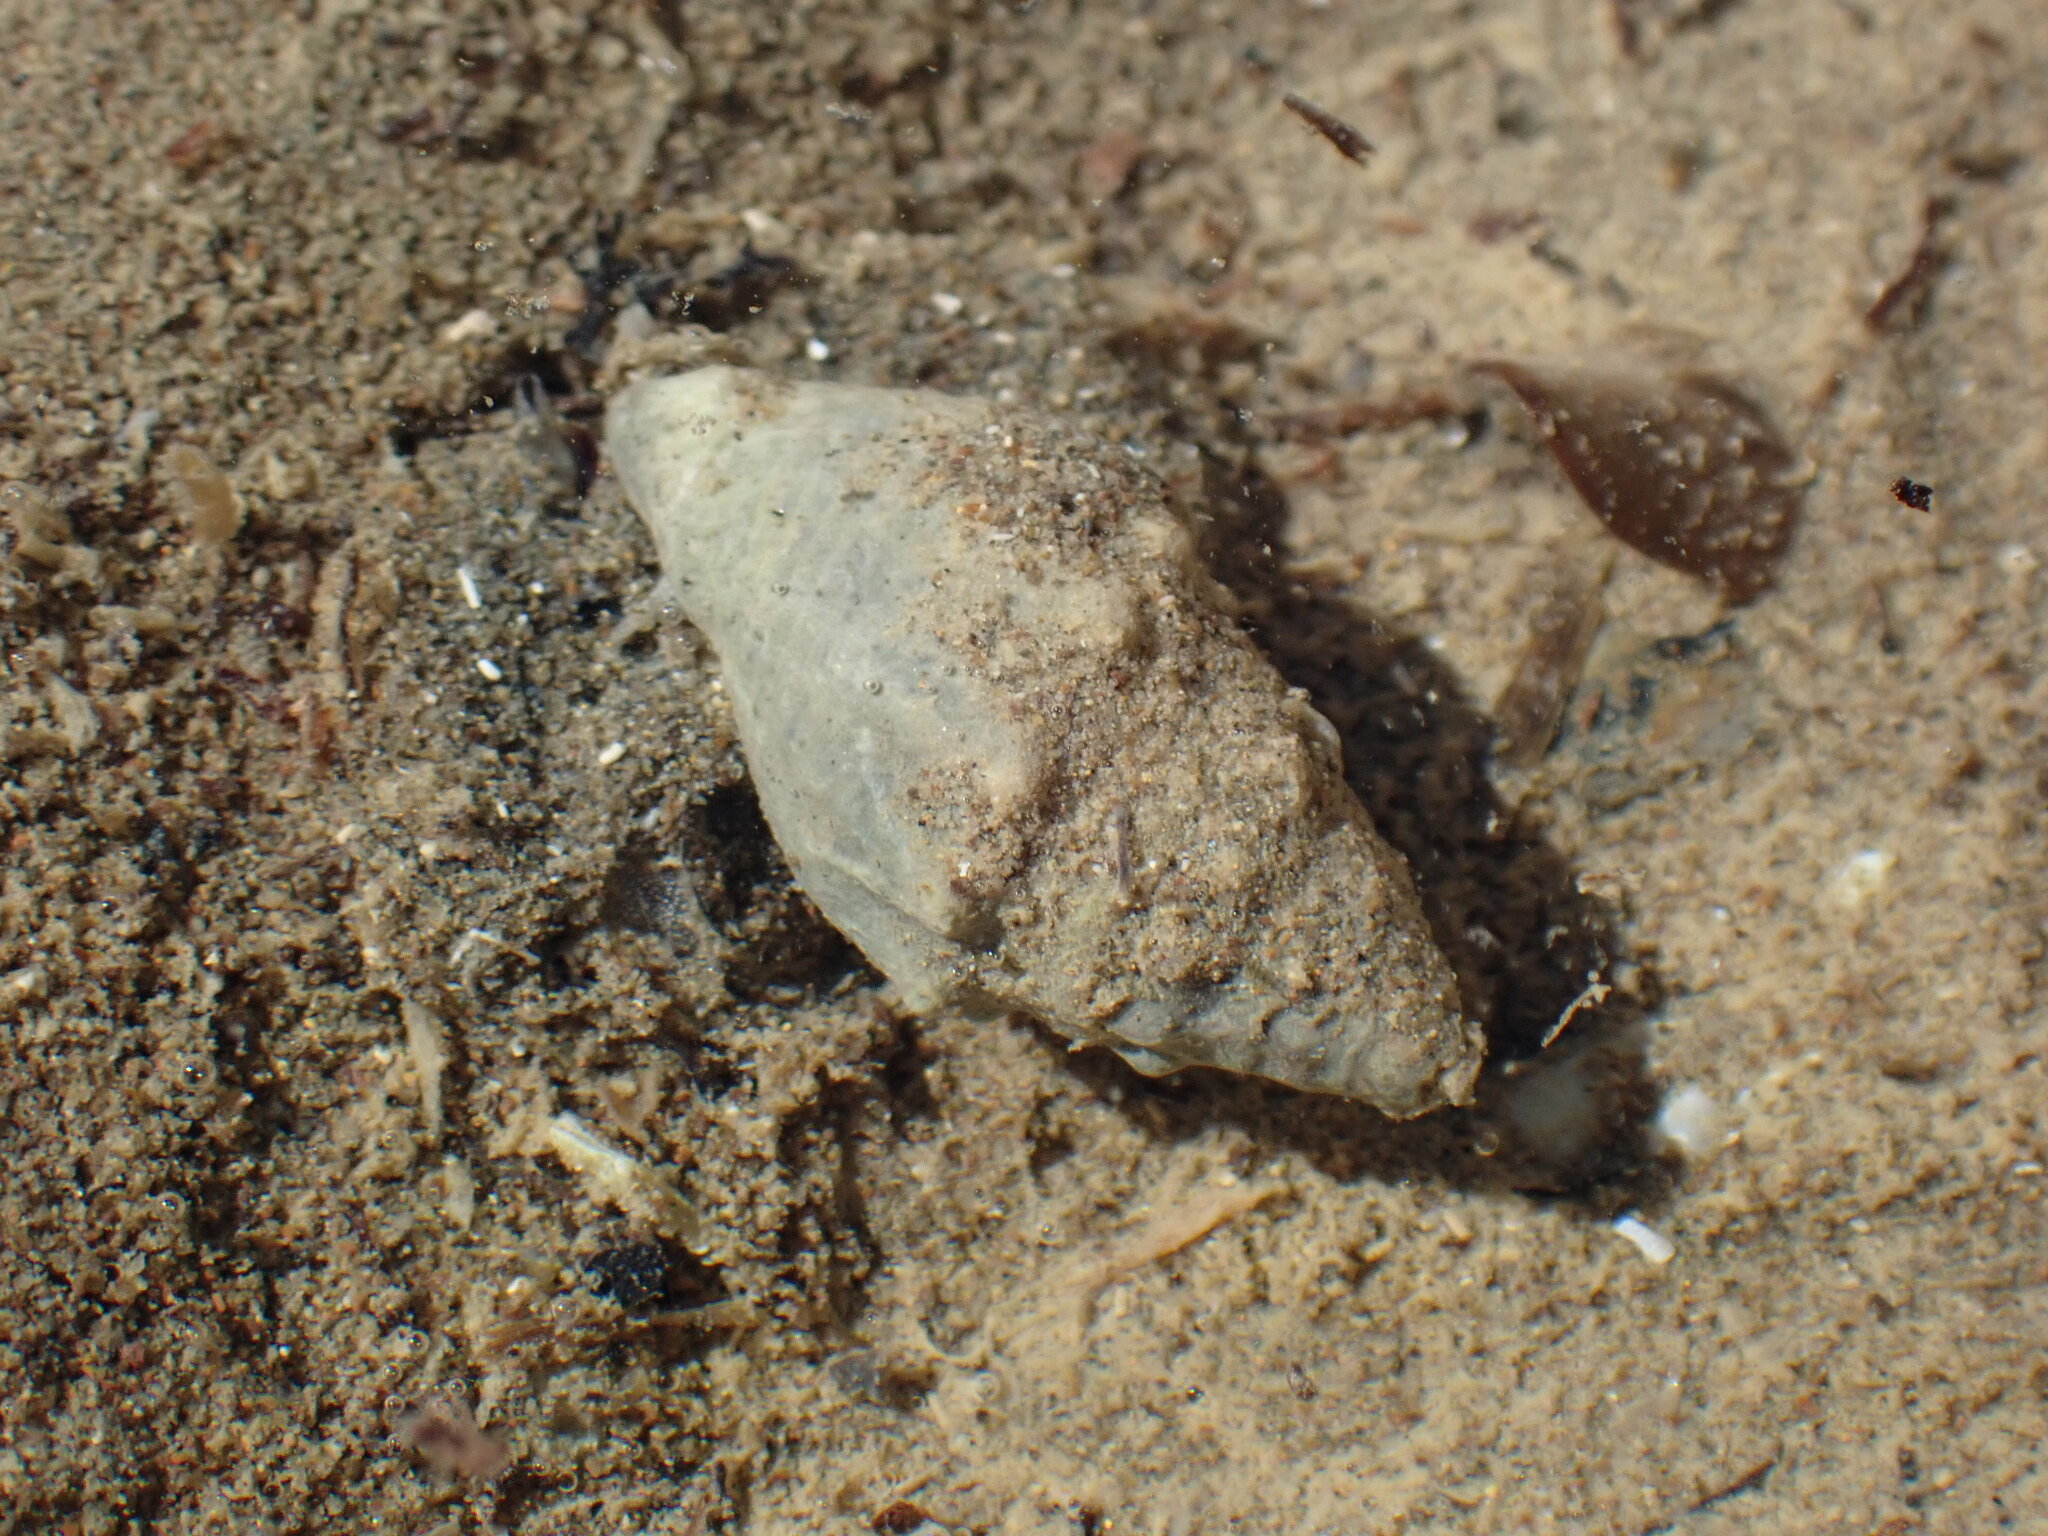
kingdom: Animalia
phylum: Mollusca
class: Gastropoda
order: Neogastropoda
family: Cominellidae
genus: Cominella
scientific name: Cominella glandiformis
